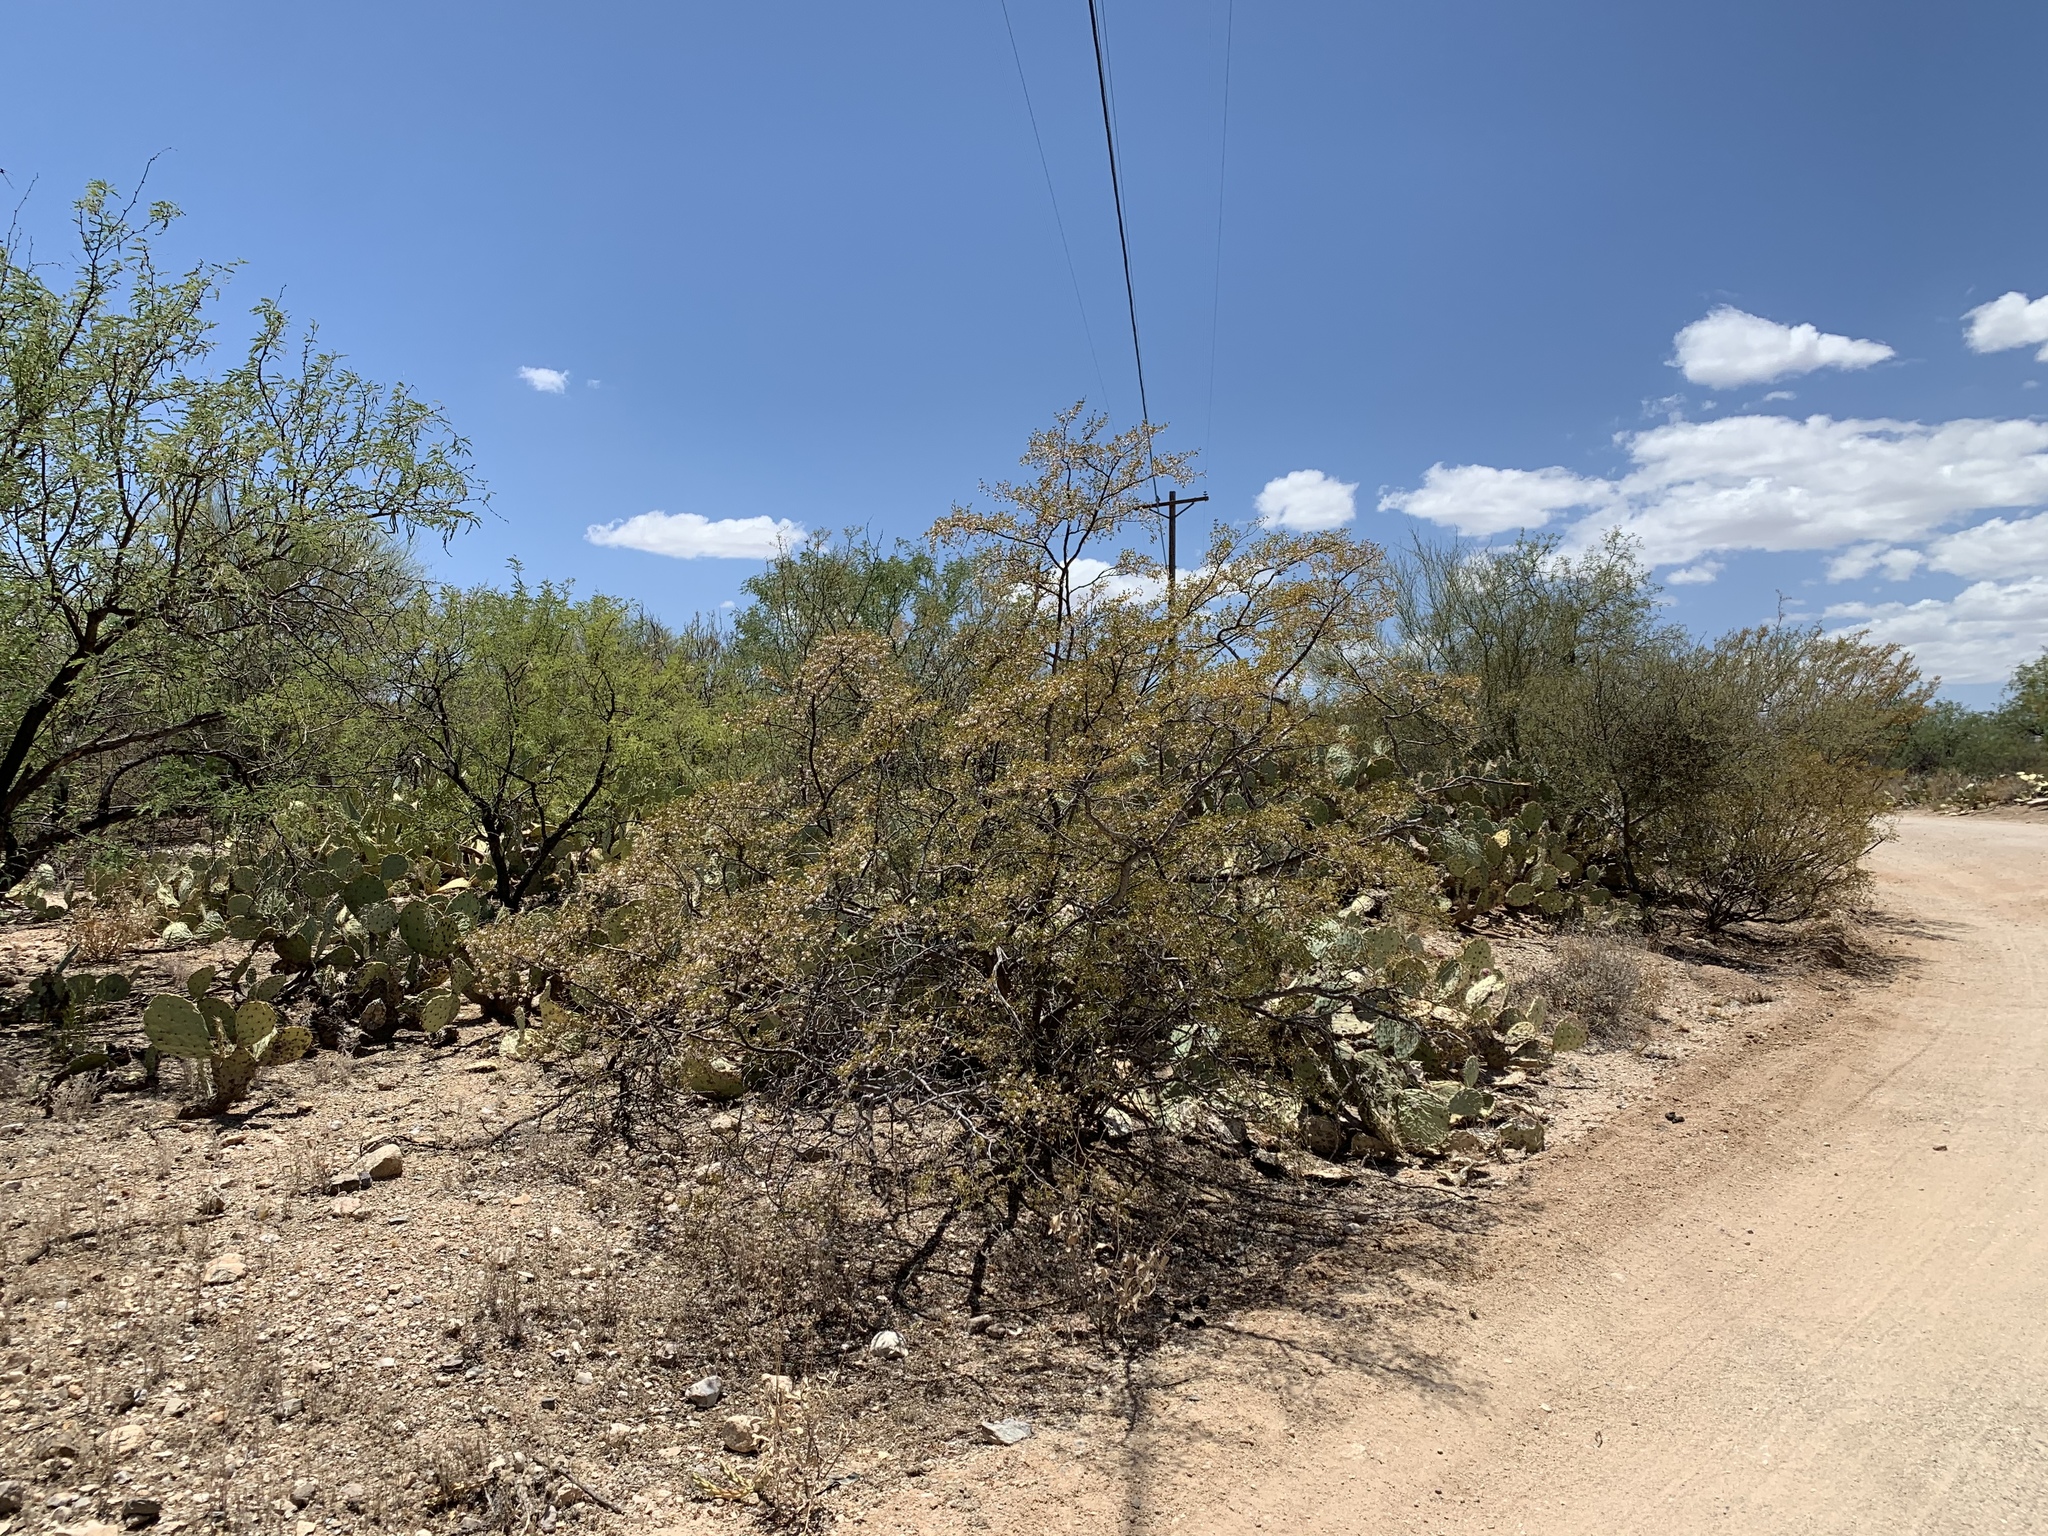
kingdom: Plantae
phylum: Tracheophyta
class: Magnoliopsida
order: Zygophyllales
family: Zygophyllaceae
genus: Larrea
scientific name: Larrea tridentata
